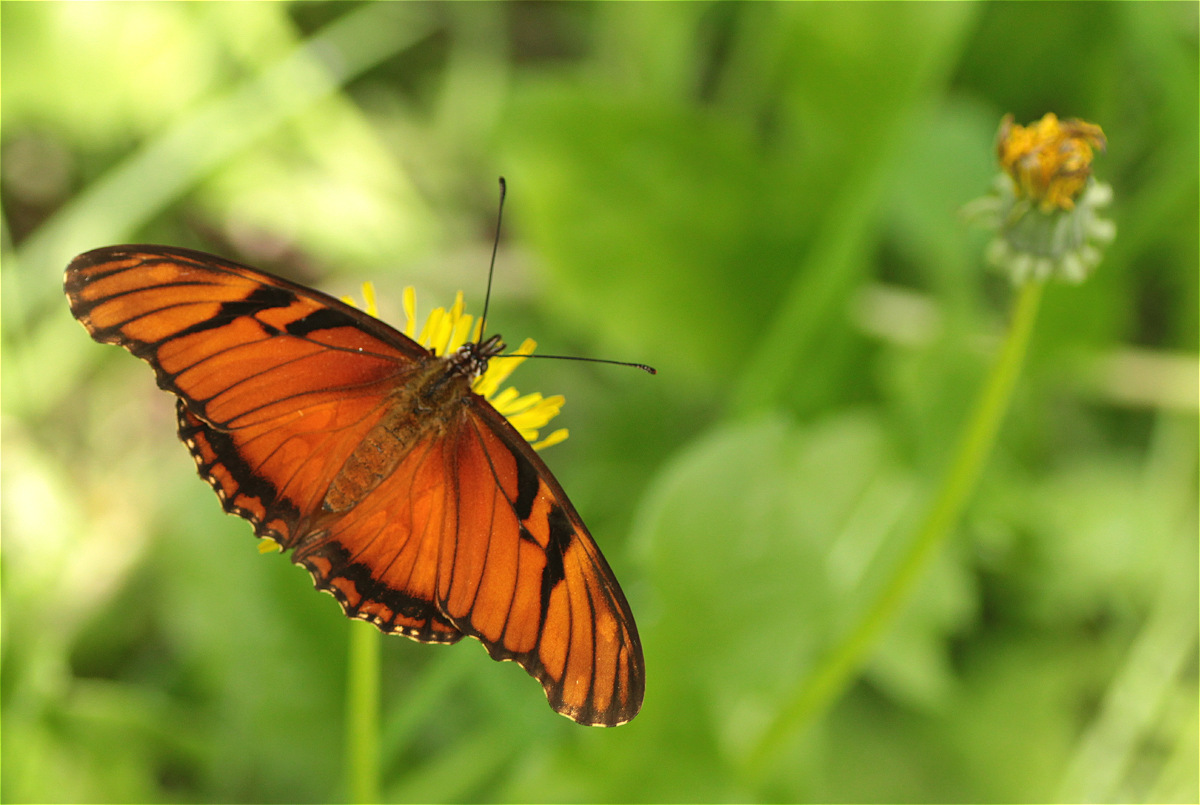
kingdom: Animalia
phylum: Arthropoda
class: Insecta
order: Lepidoptera
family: Nymphalidae
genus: Dione
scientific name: Dione juno
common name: Juno silverspot
